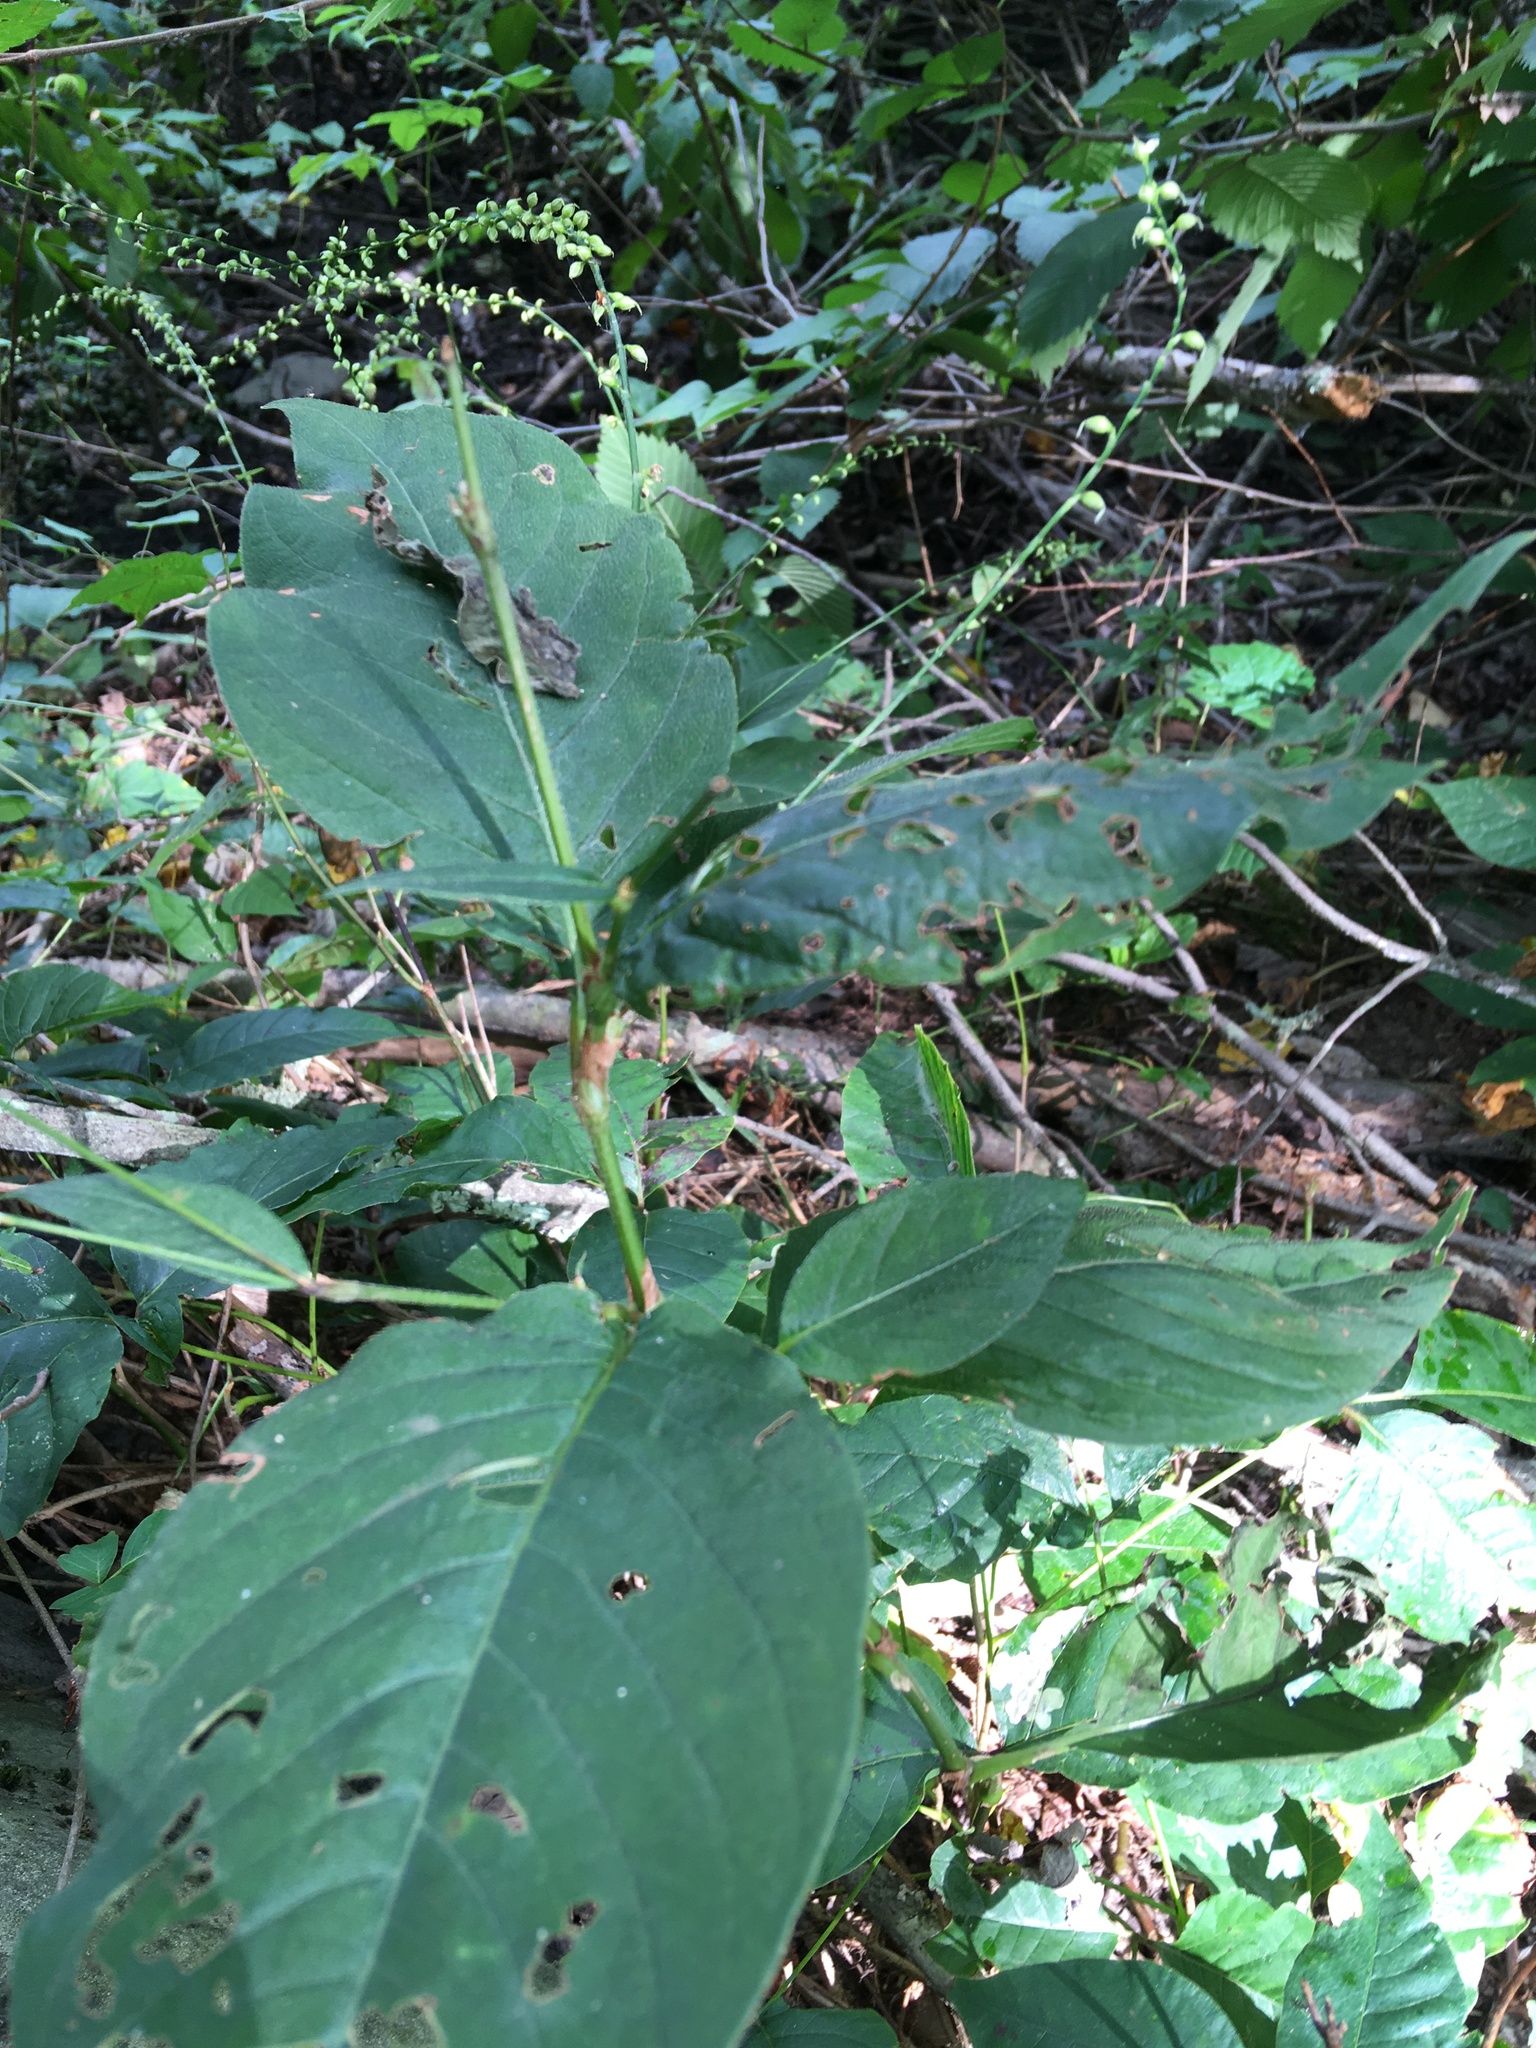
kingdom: Plantae
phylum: Tracheophyta
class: Magnoliopsida
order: Caryophyllales
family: Polygonaceae
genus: Persicaria
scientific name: Persicaria virginiana
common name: Jumpseed
